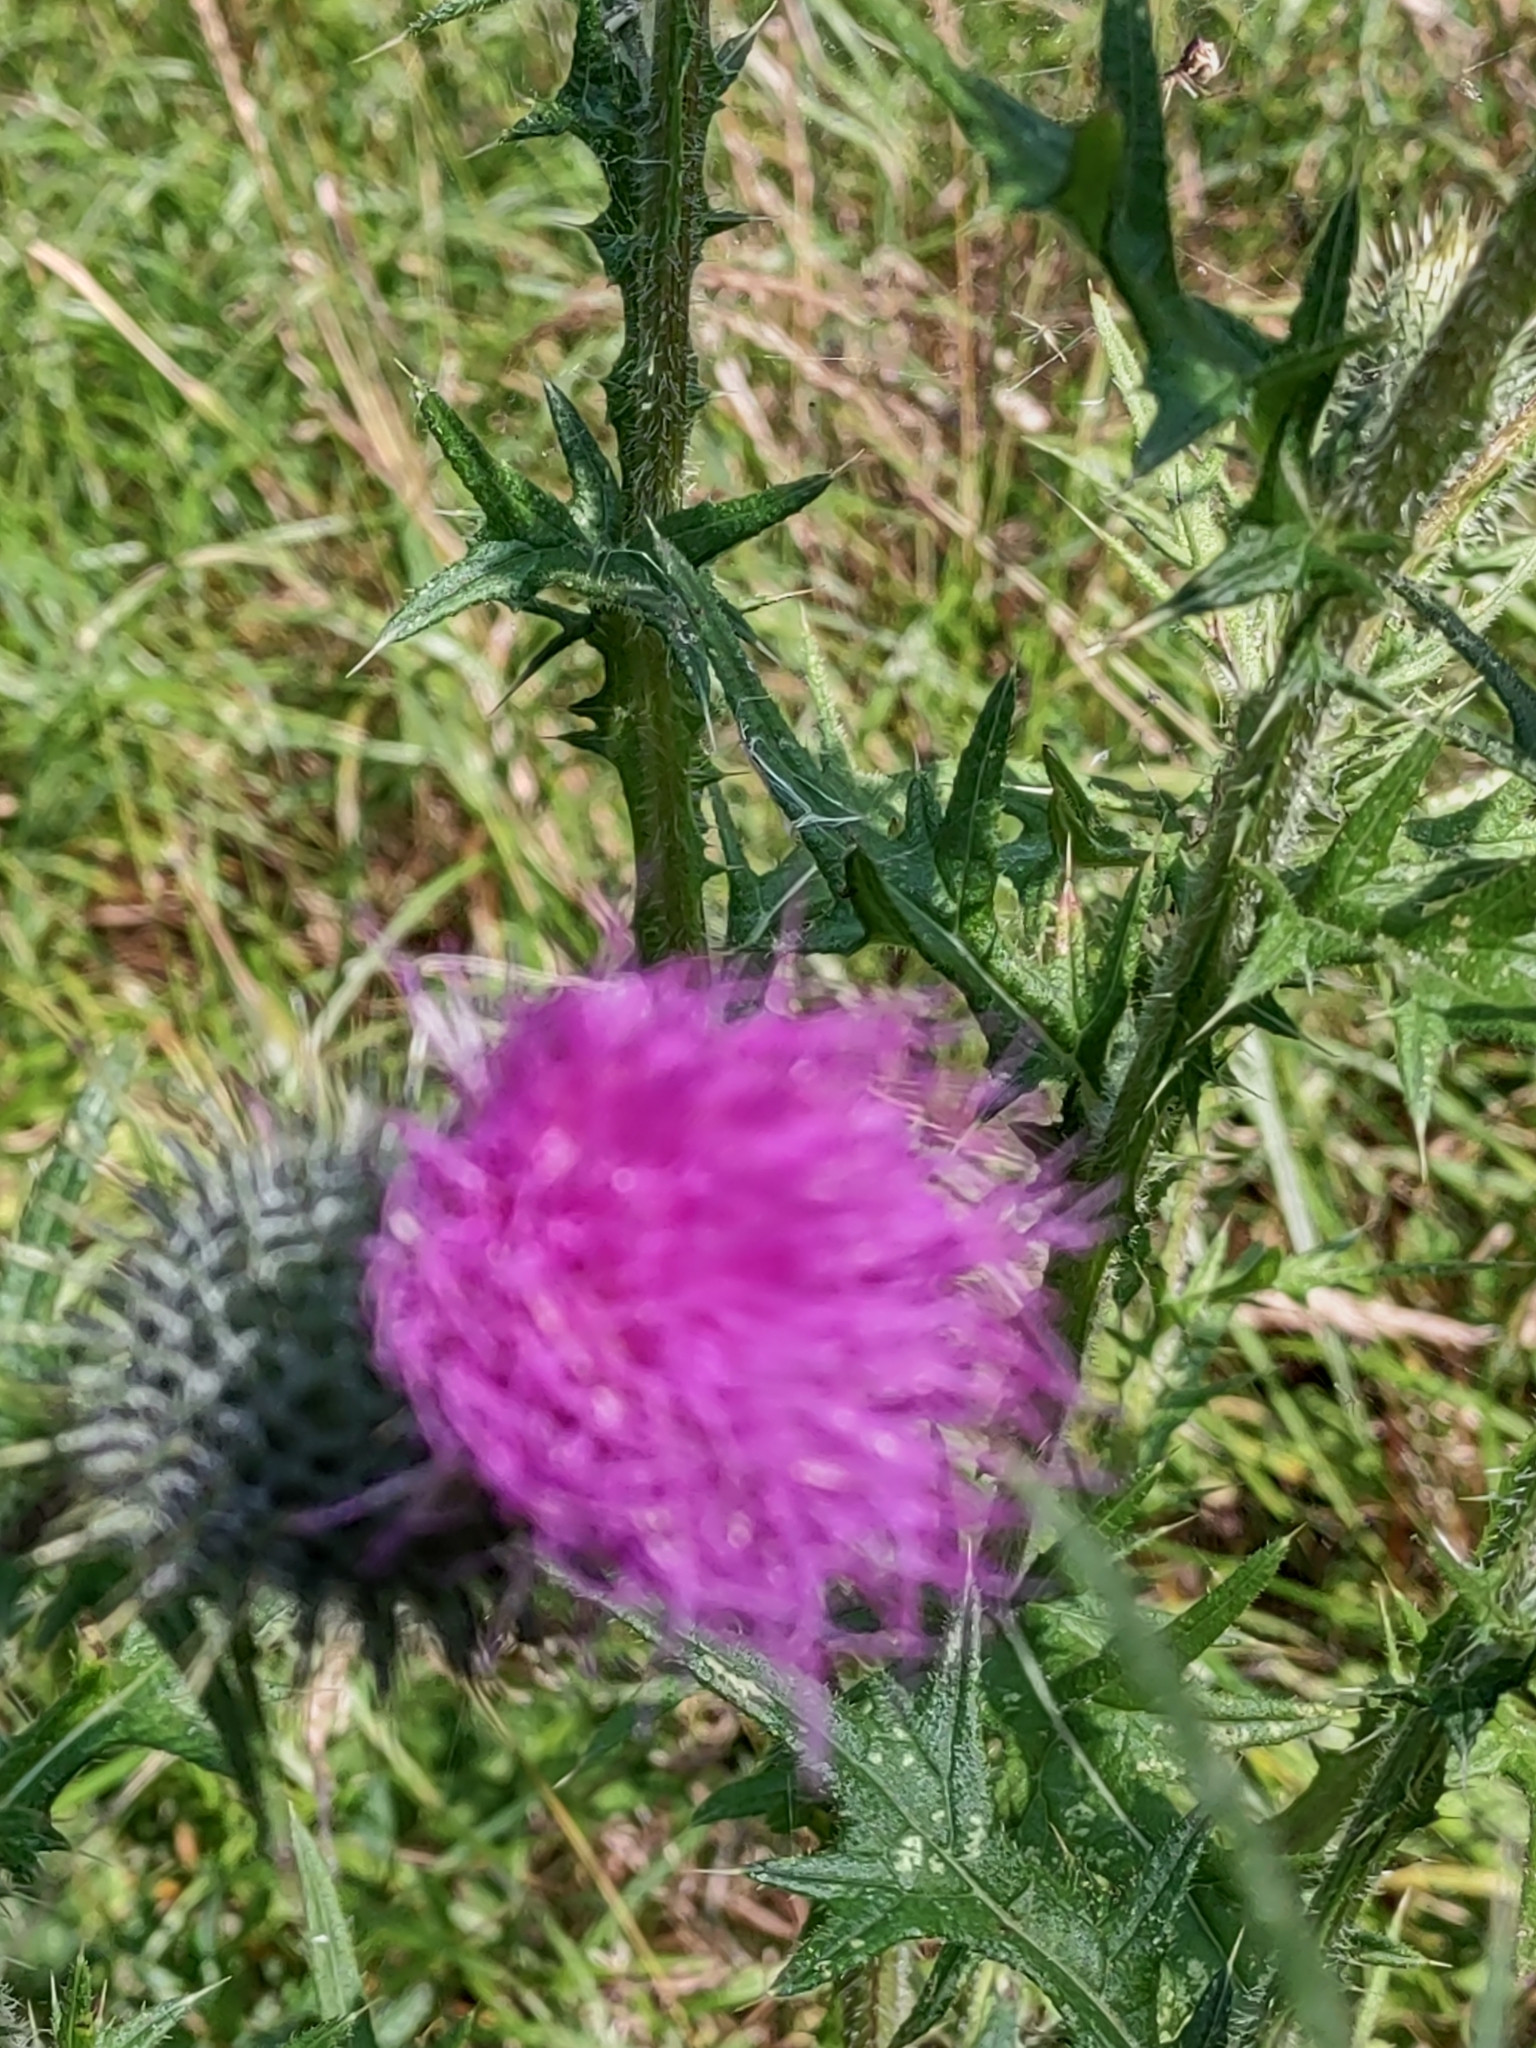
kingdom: Plantae
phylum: Tracheophyta
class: Magnoliopsida
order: Asterales
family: Asteraceae
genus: Cirsium
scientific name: Cirsium vulgare
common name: Bull thistle
